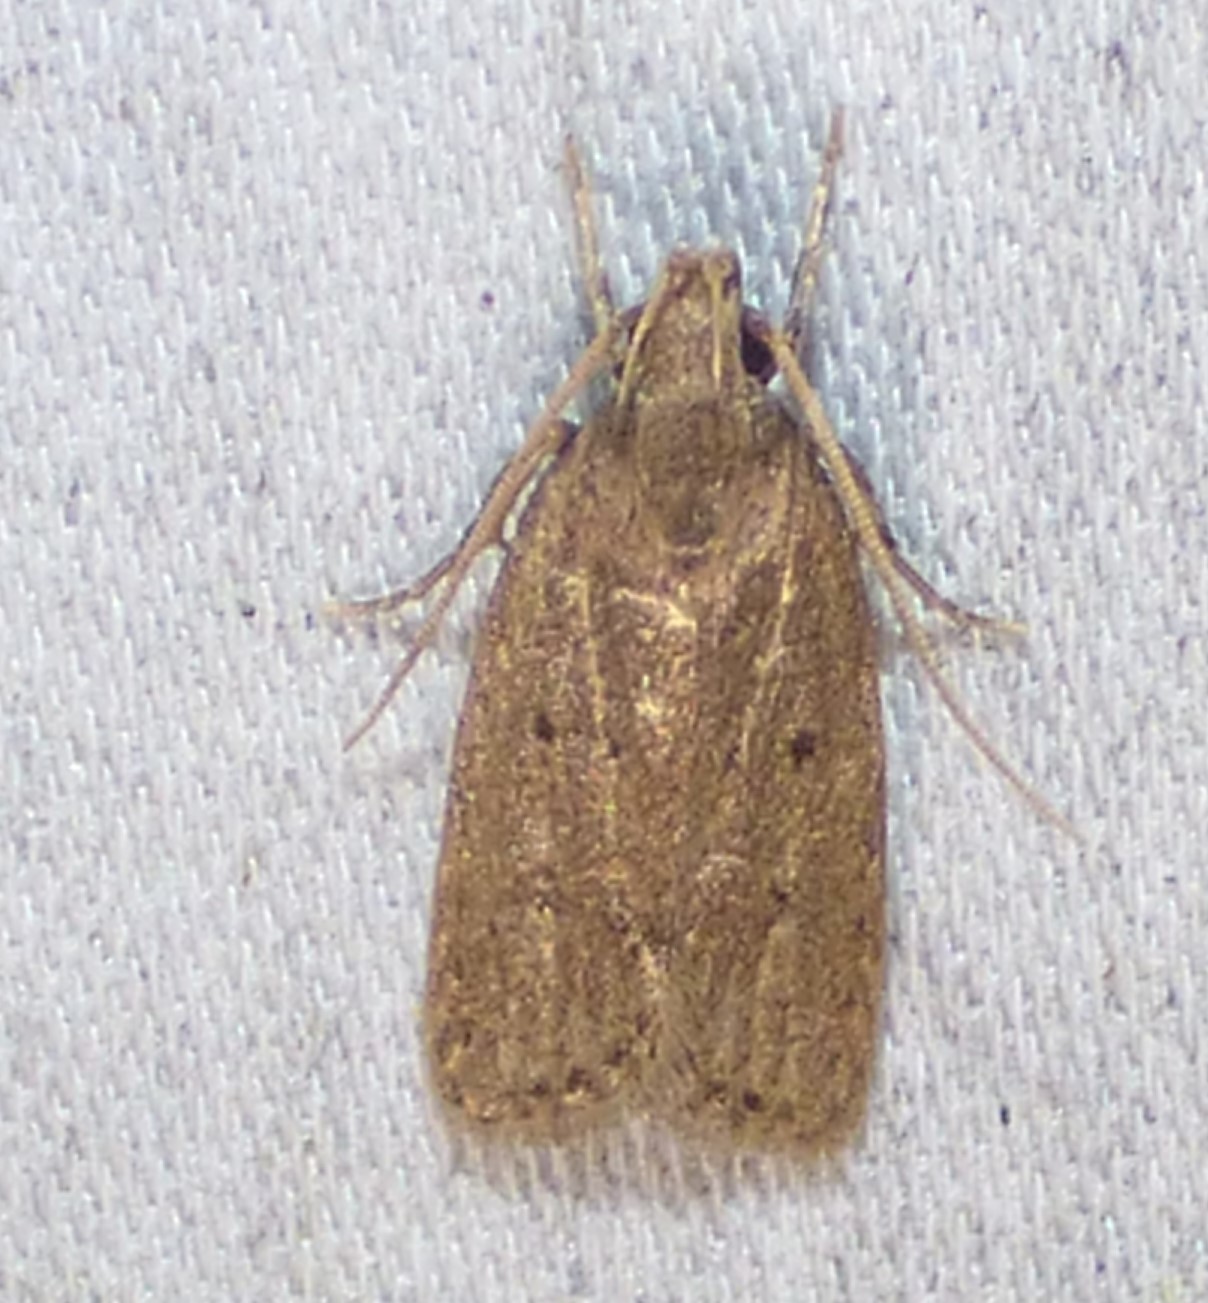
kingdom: Animalia
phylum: Arthropoda
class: Insecta
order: Lepidoptera
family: Autostichidae
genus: Autosticha
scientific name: Autosticha kyotensis
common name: Kyoto moth
